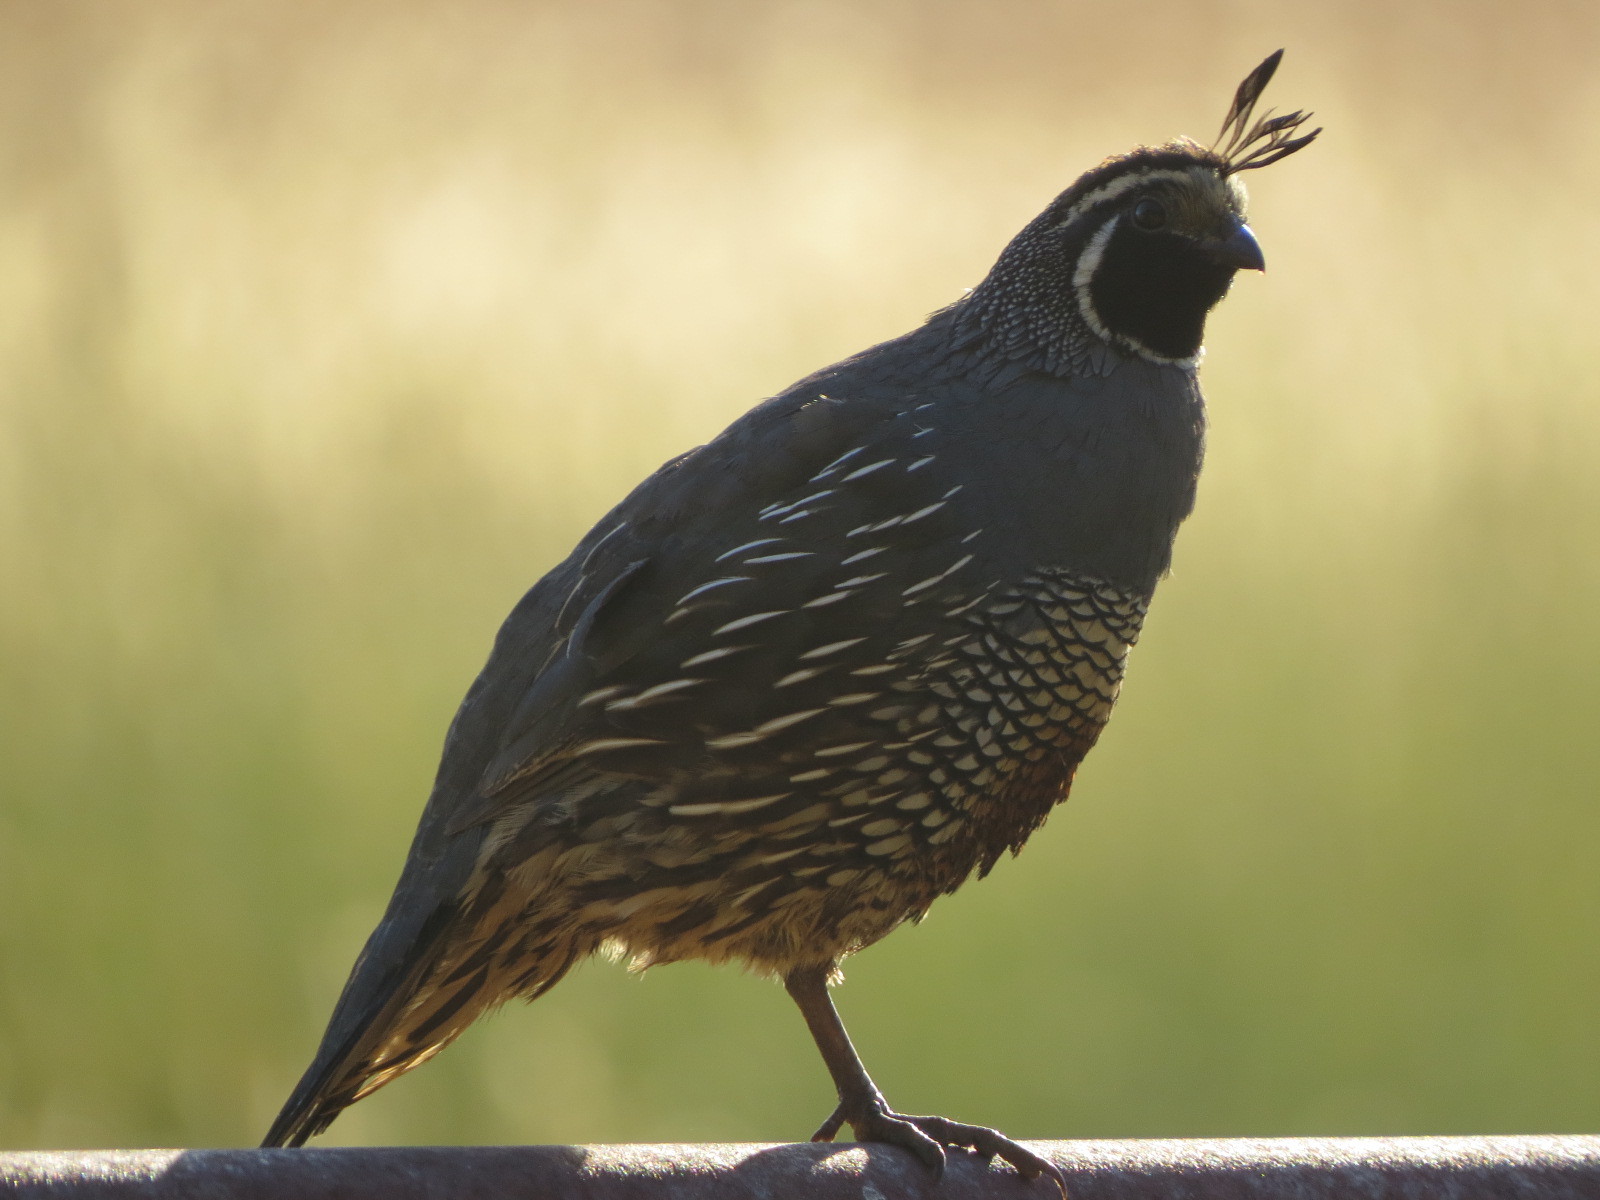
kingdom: Animalia
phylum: Chordata
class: Aves
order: Galliformes
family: Odontophoridae
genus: Callipepla
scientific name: Callipepla californica
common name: California quail
